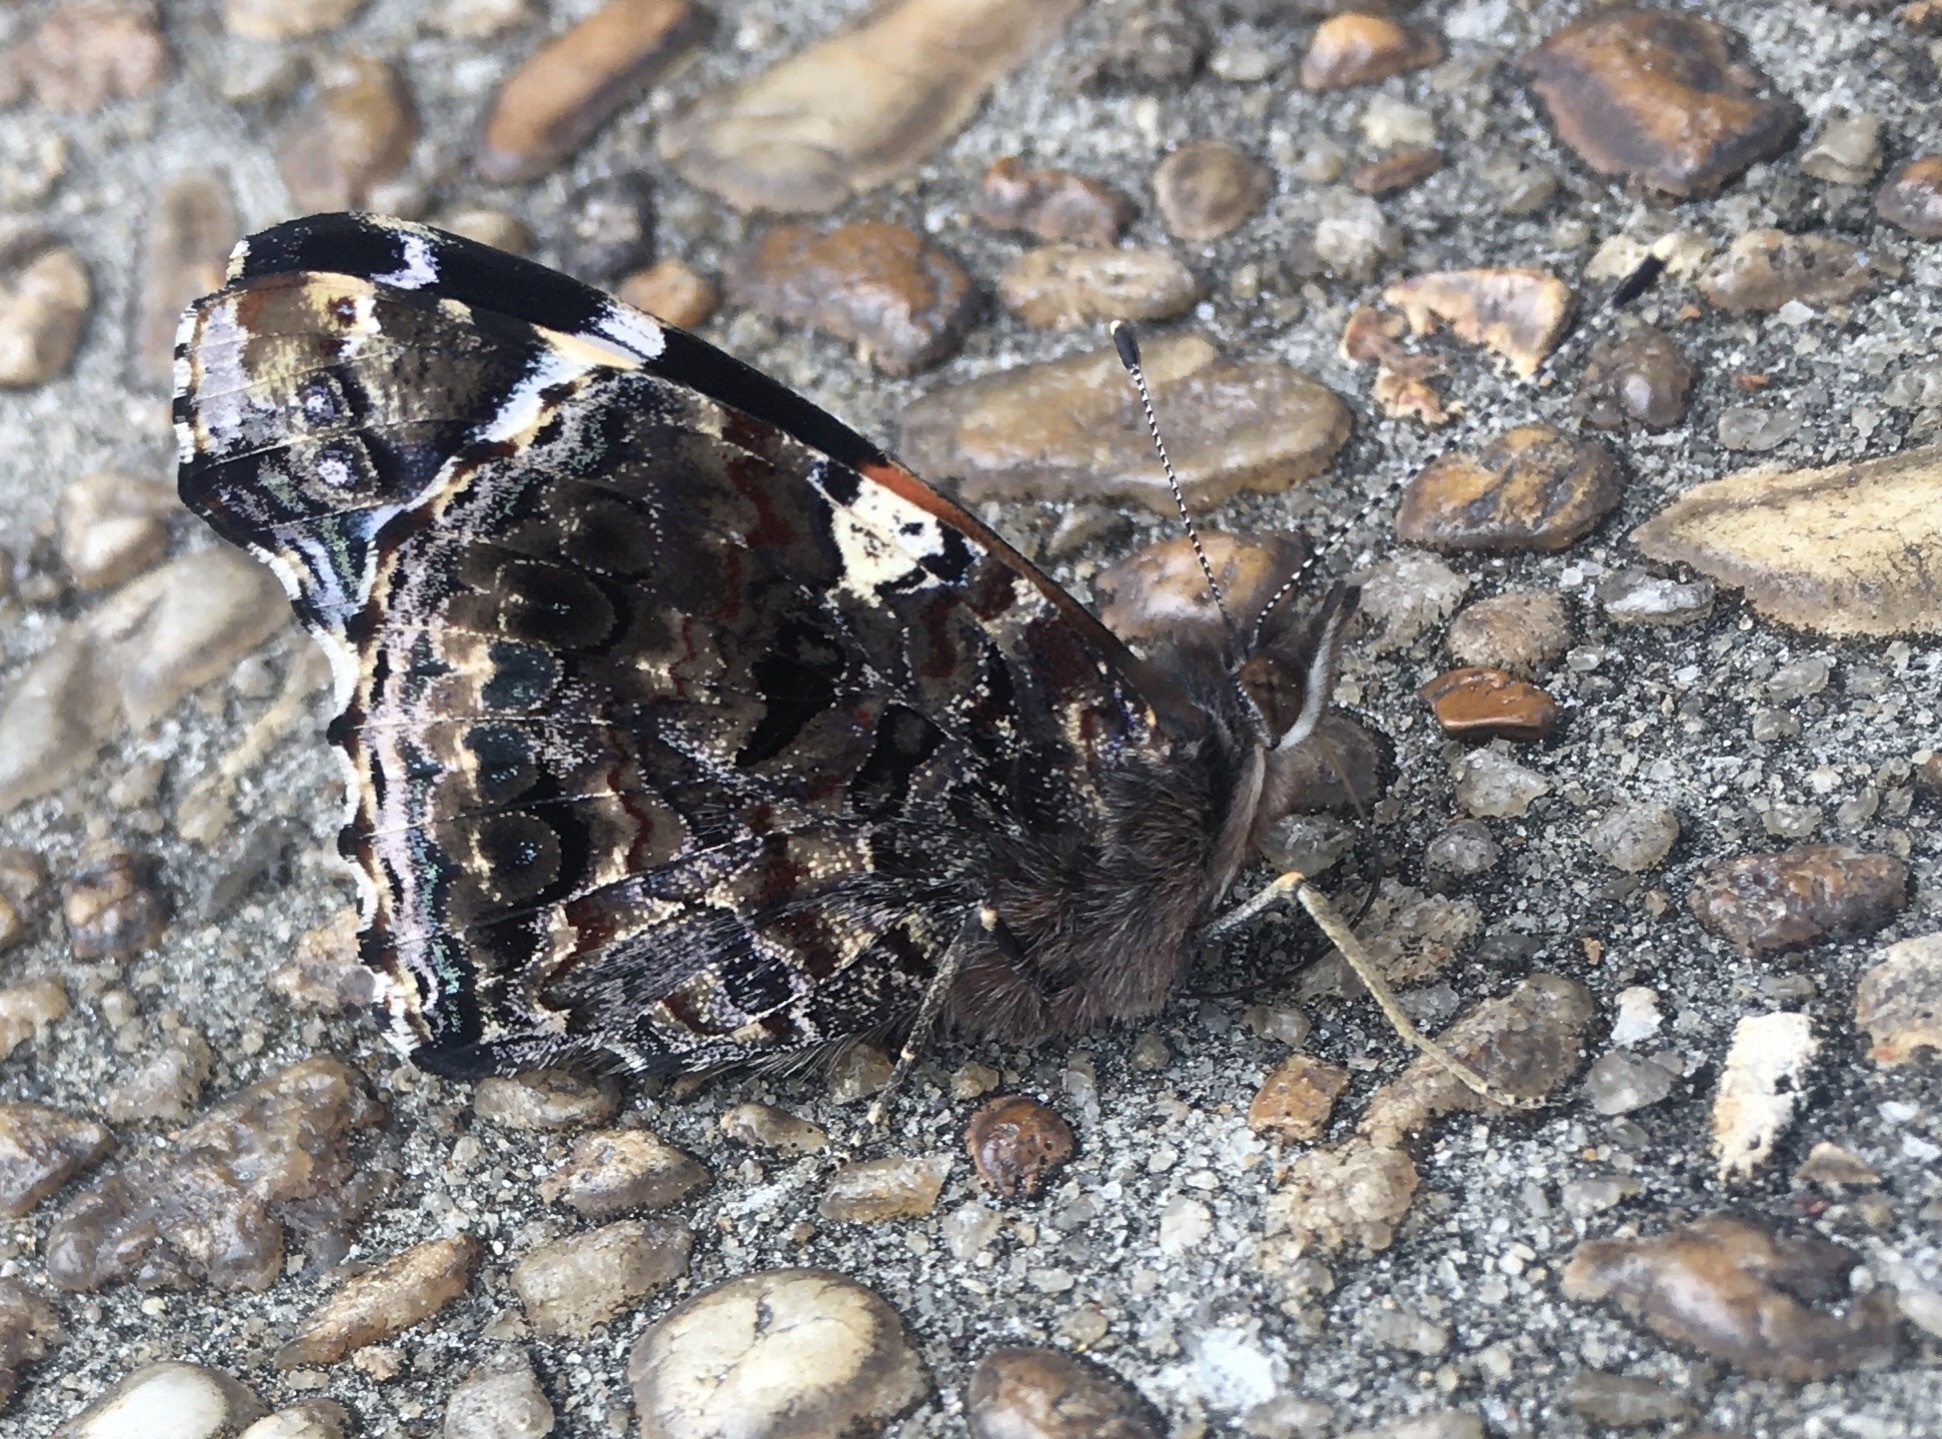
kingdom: Animalia
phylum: Arthropoda
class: Insecta
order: Lepidoptera
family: Nymphalidae
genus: Vanessa
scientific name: Vanessa atalanta
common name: Red admiral
